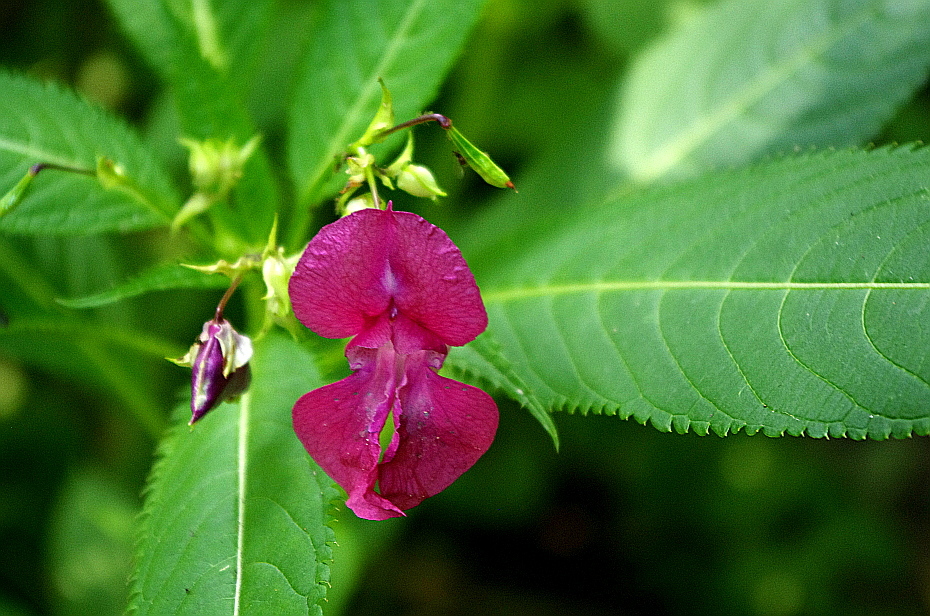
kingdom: Plantae
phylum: Tracheophyta
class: Magnoliopsida
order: Ericales
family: Balsaminaceae
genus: Impatiens
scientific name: Impatiens glandulifera
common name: Himalayan balsam
